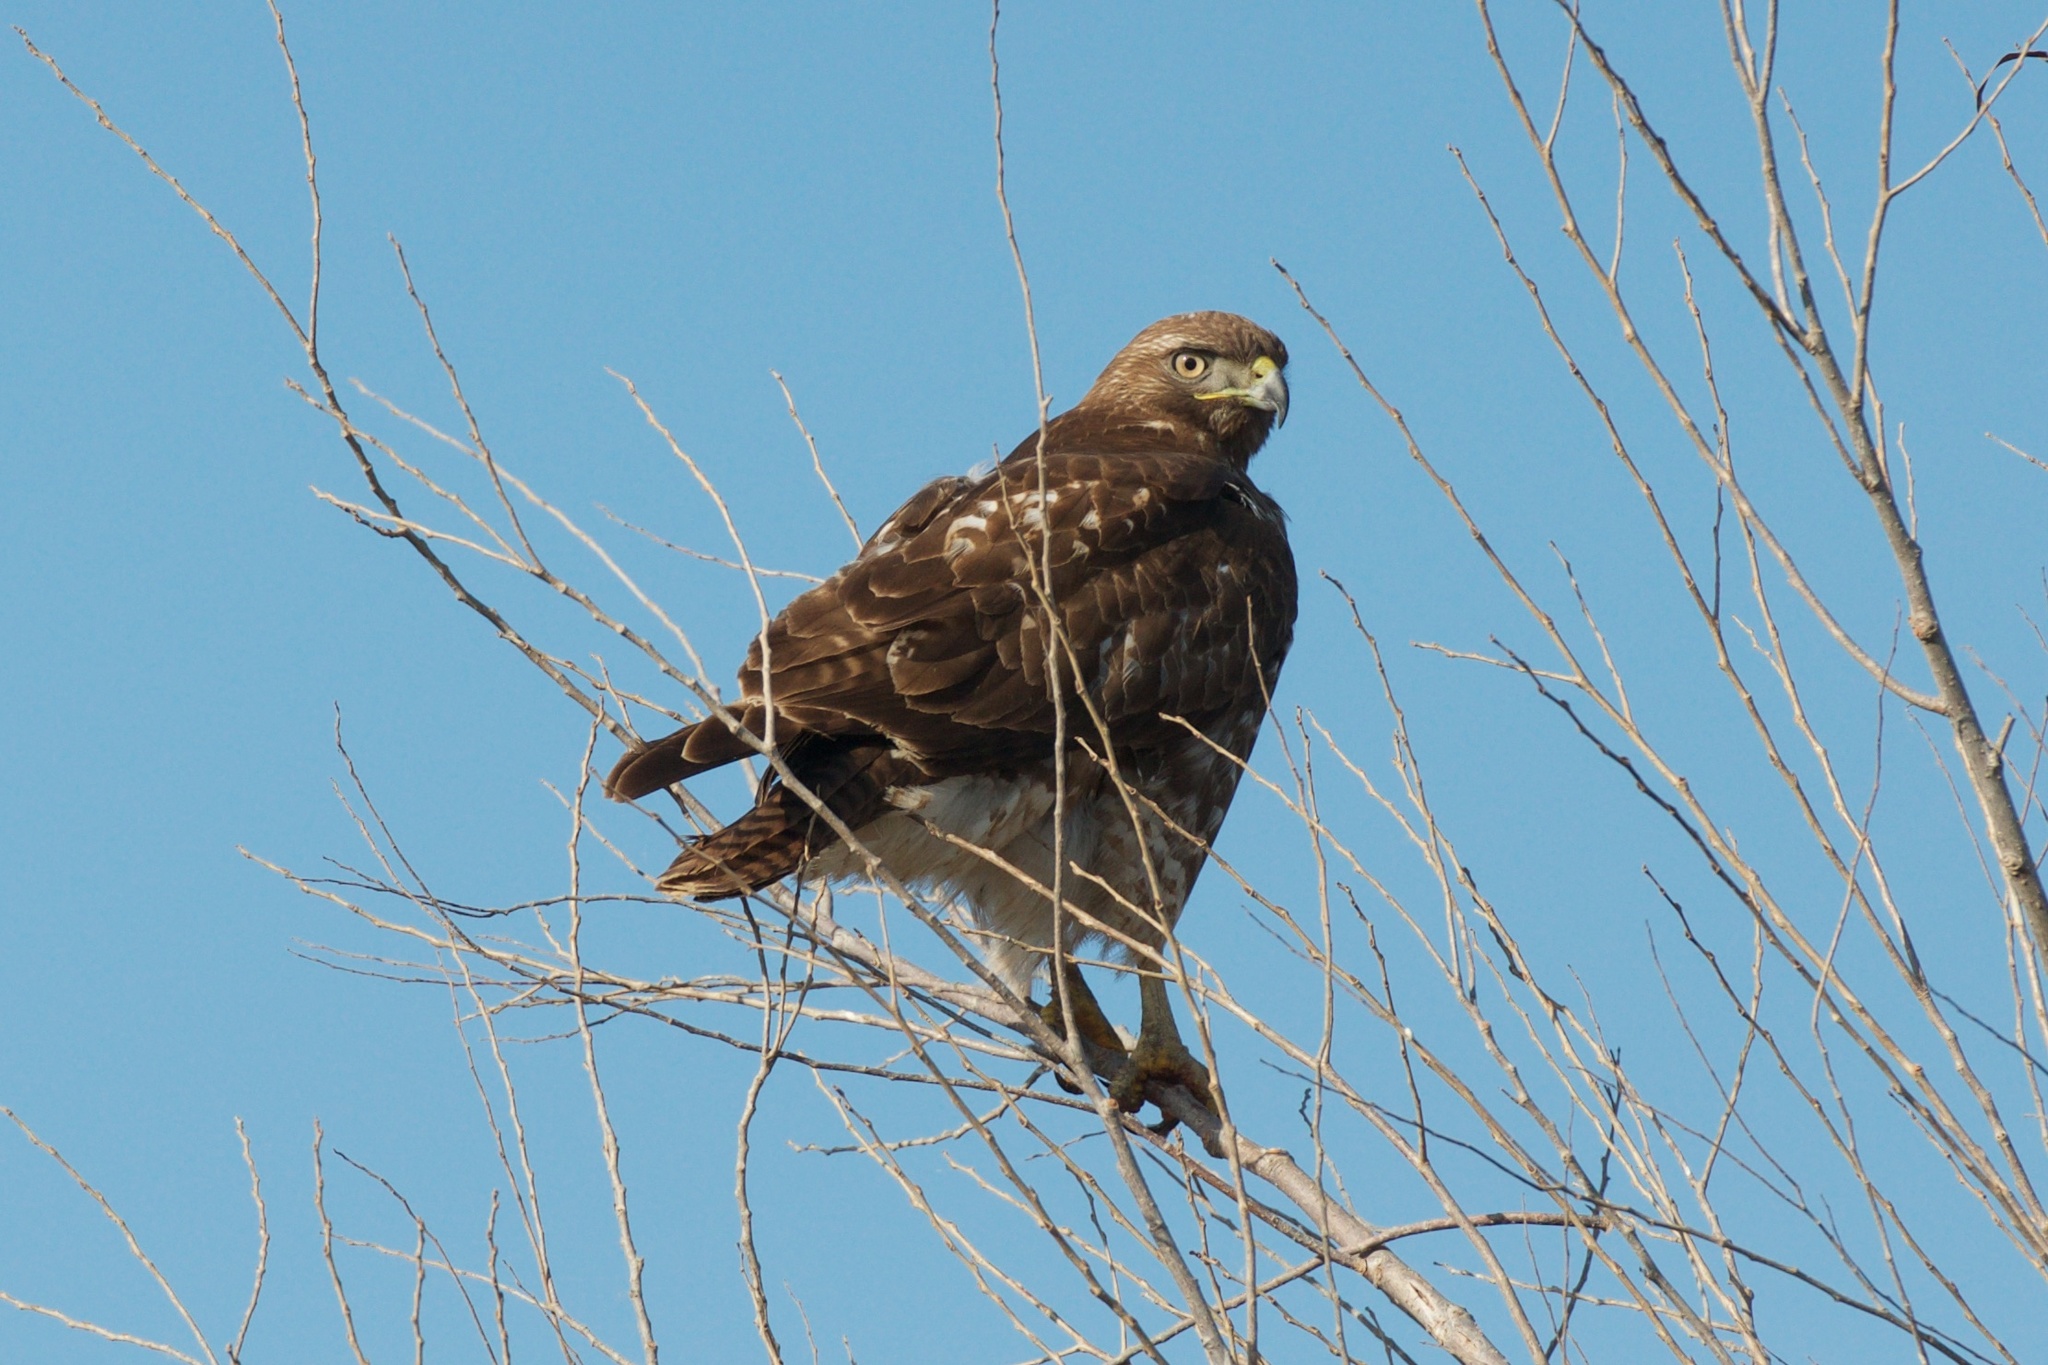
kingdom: Animalia
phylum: Chordata
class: Aves
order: Accipitriformes
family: Accipitridae
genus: Buteo
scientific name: Buteo jamaicensis
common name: Red-tailed hawk
